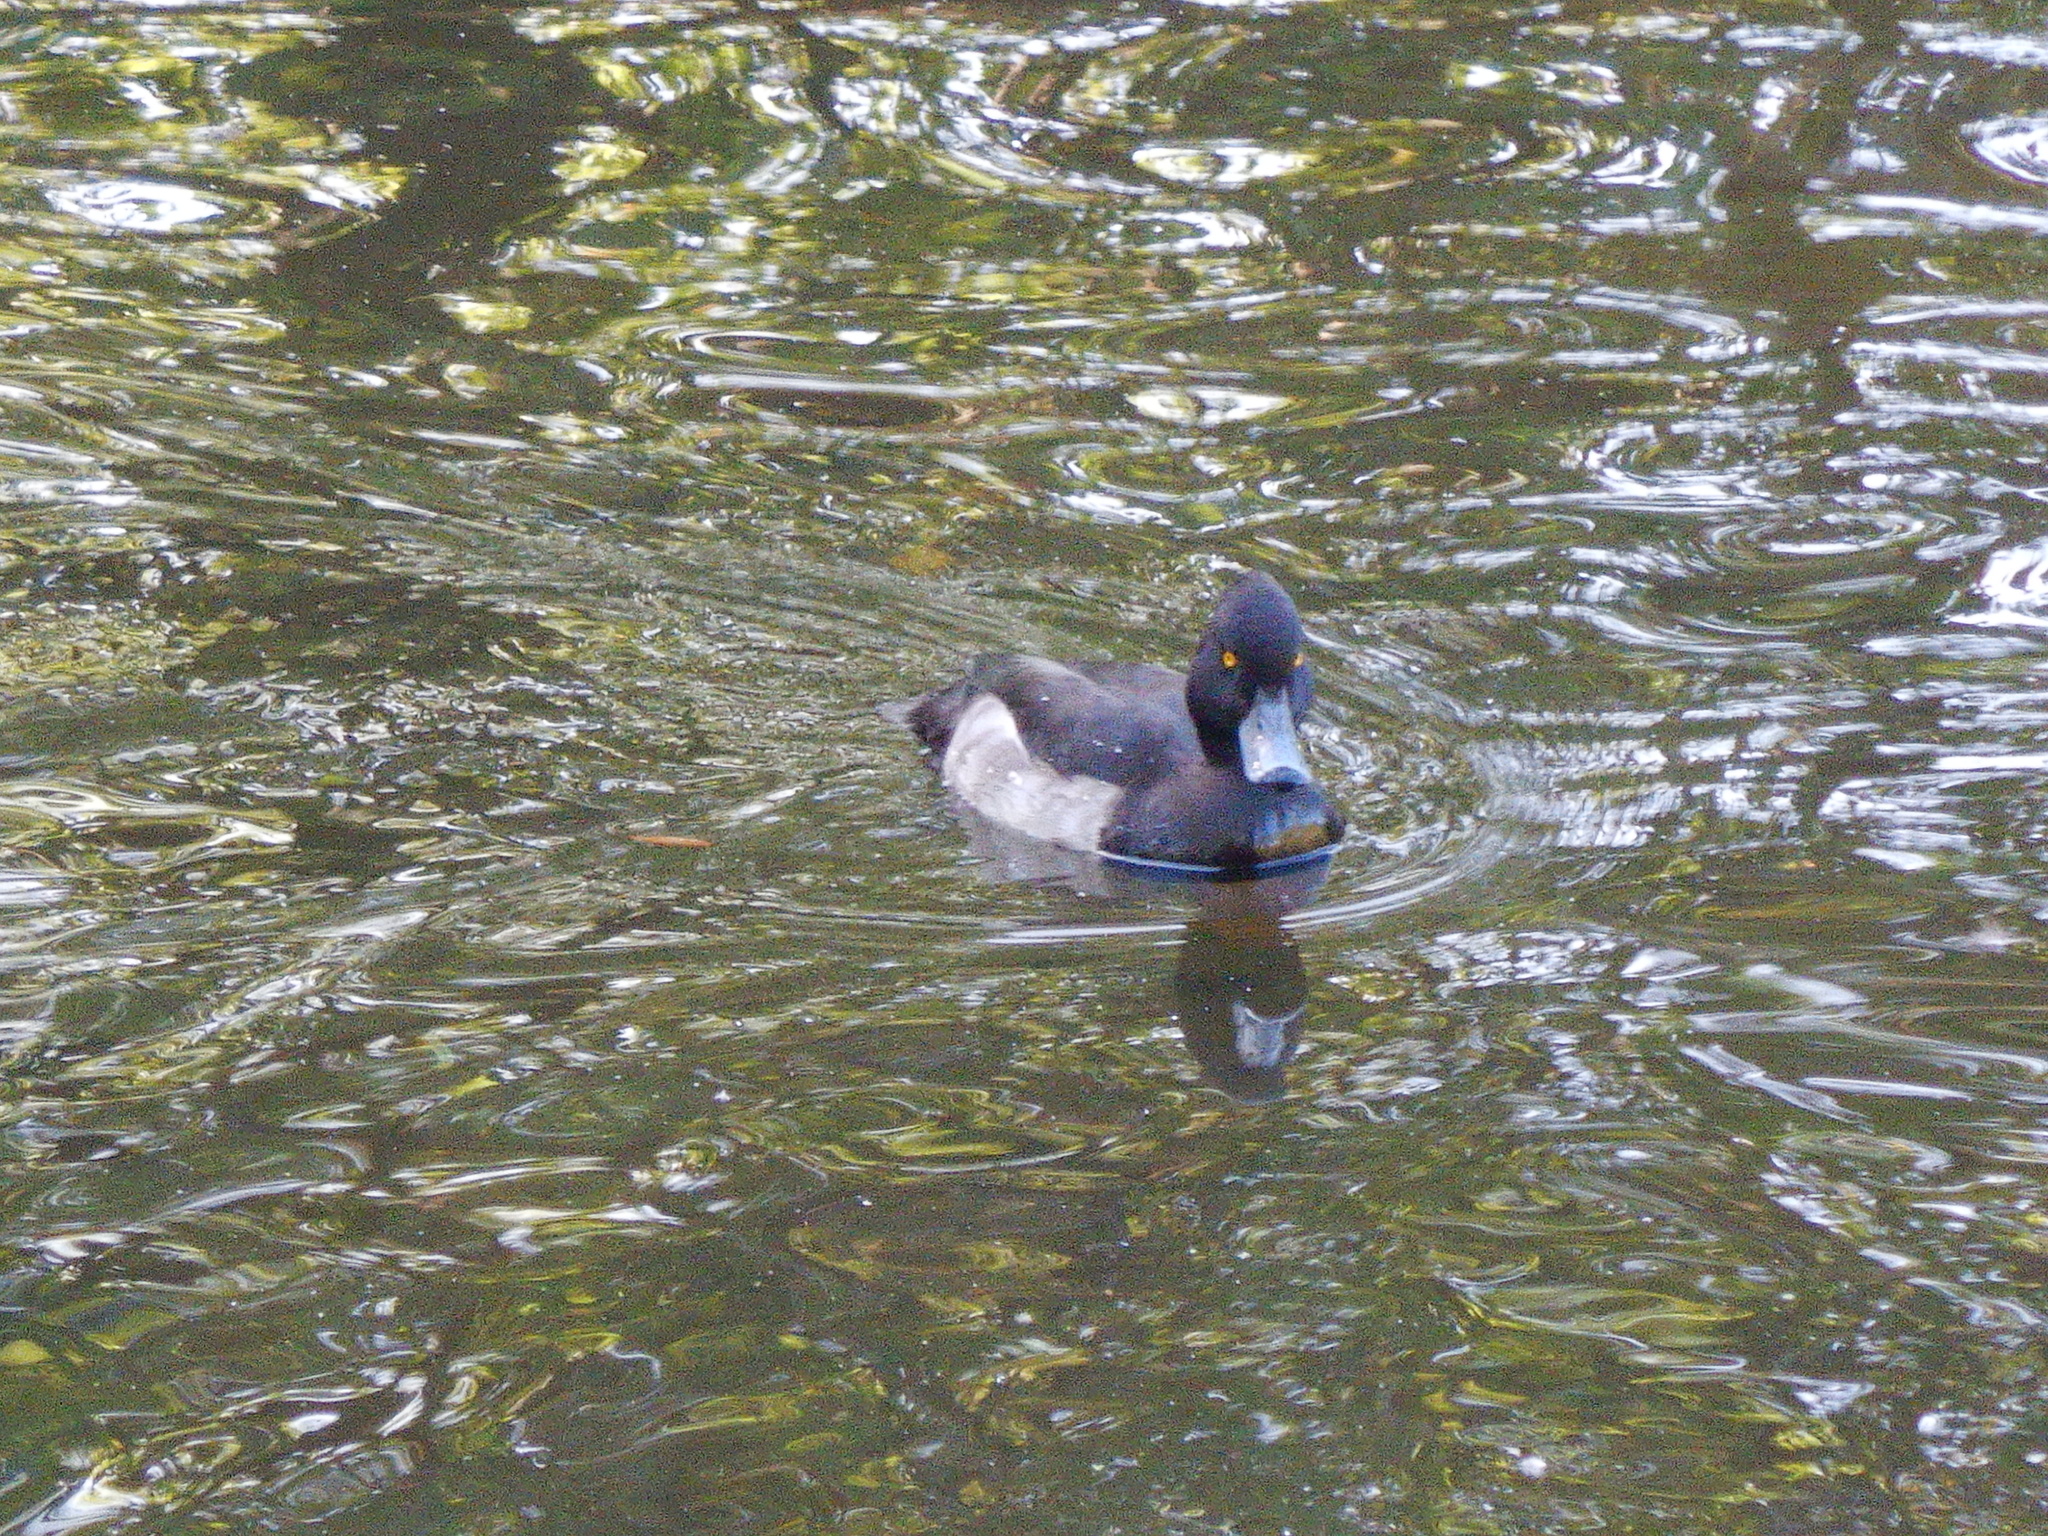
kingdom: Animalia
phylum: Chordata
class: Aves
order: Anseriformes
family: Anatidae
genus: Aythya
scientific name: Aythya fuligula
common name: Tufted duck
